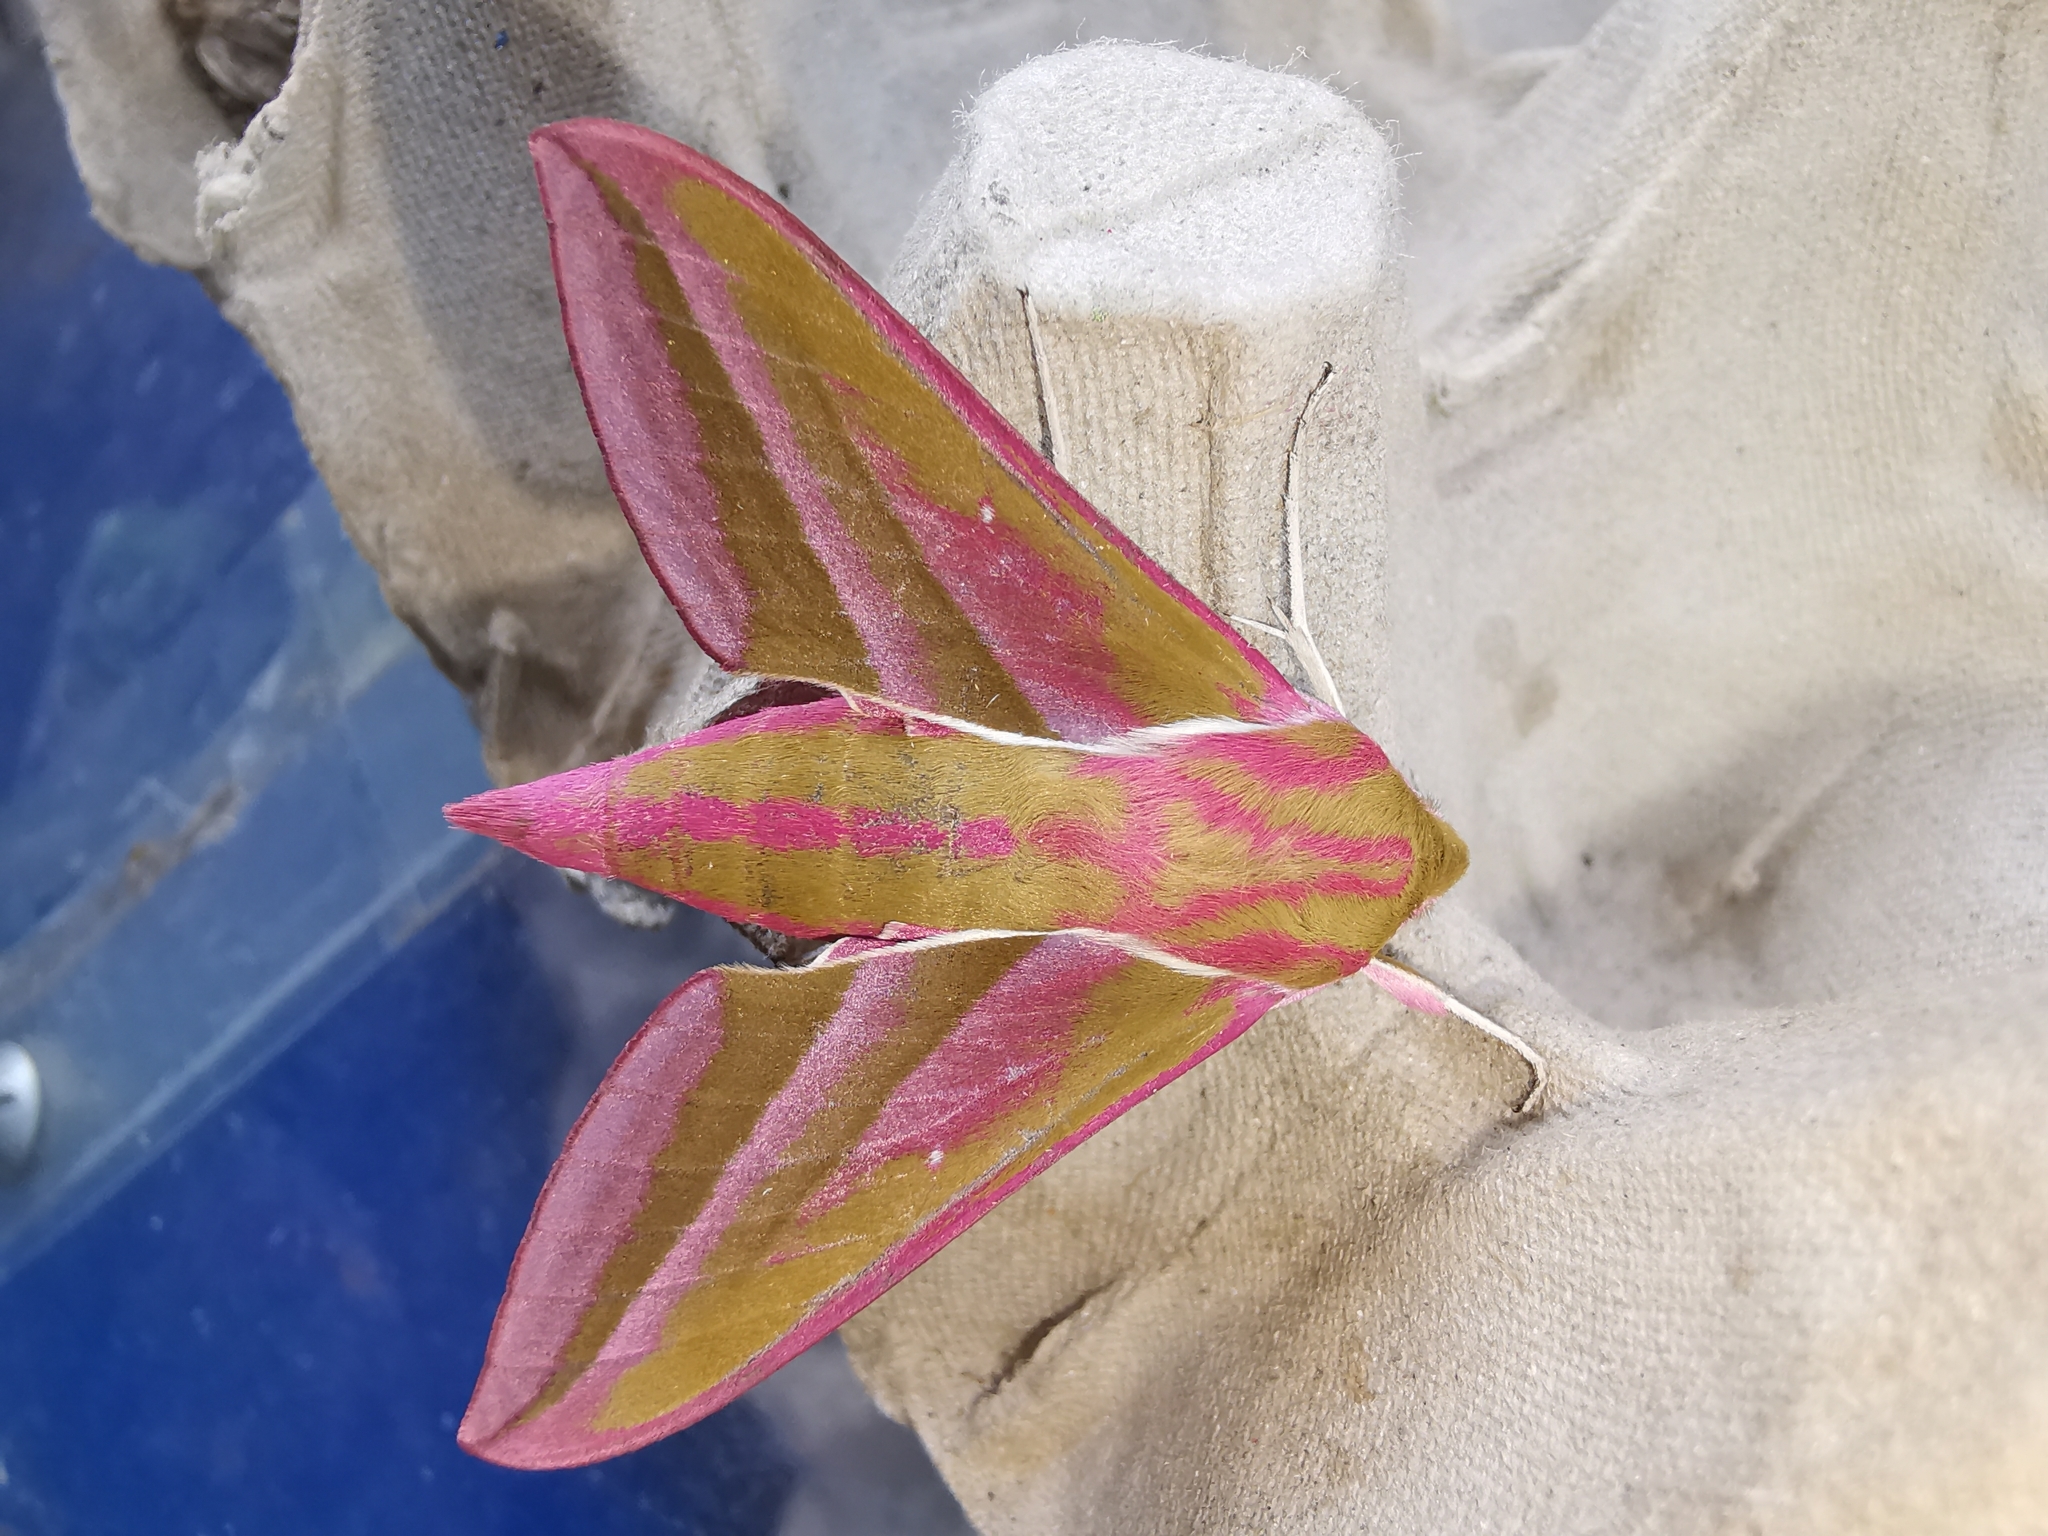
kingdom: Animalia
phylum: Arthropoda
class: Insecta
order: Lepidoptera
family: Sphingidae
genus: Deilephila
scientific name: Deilephila elpenor
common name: Elephant hawk-moth
